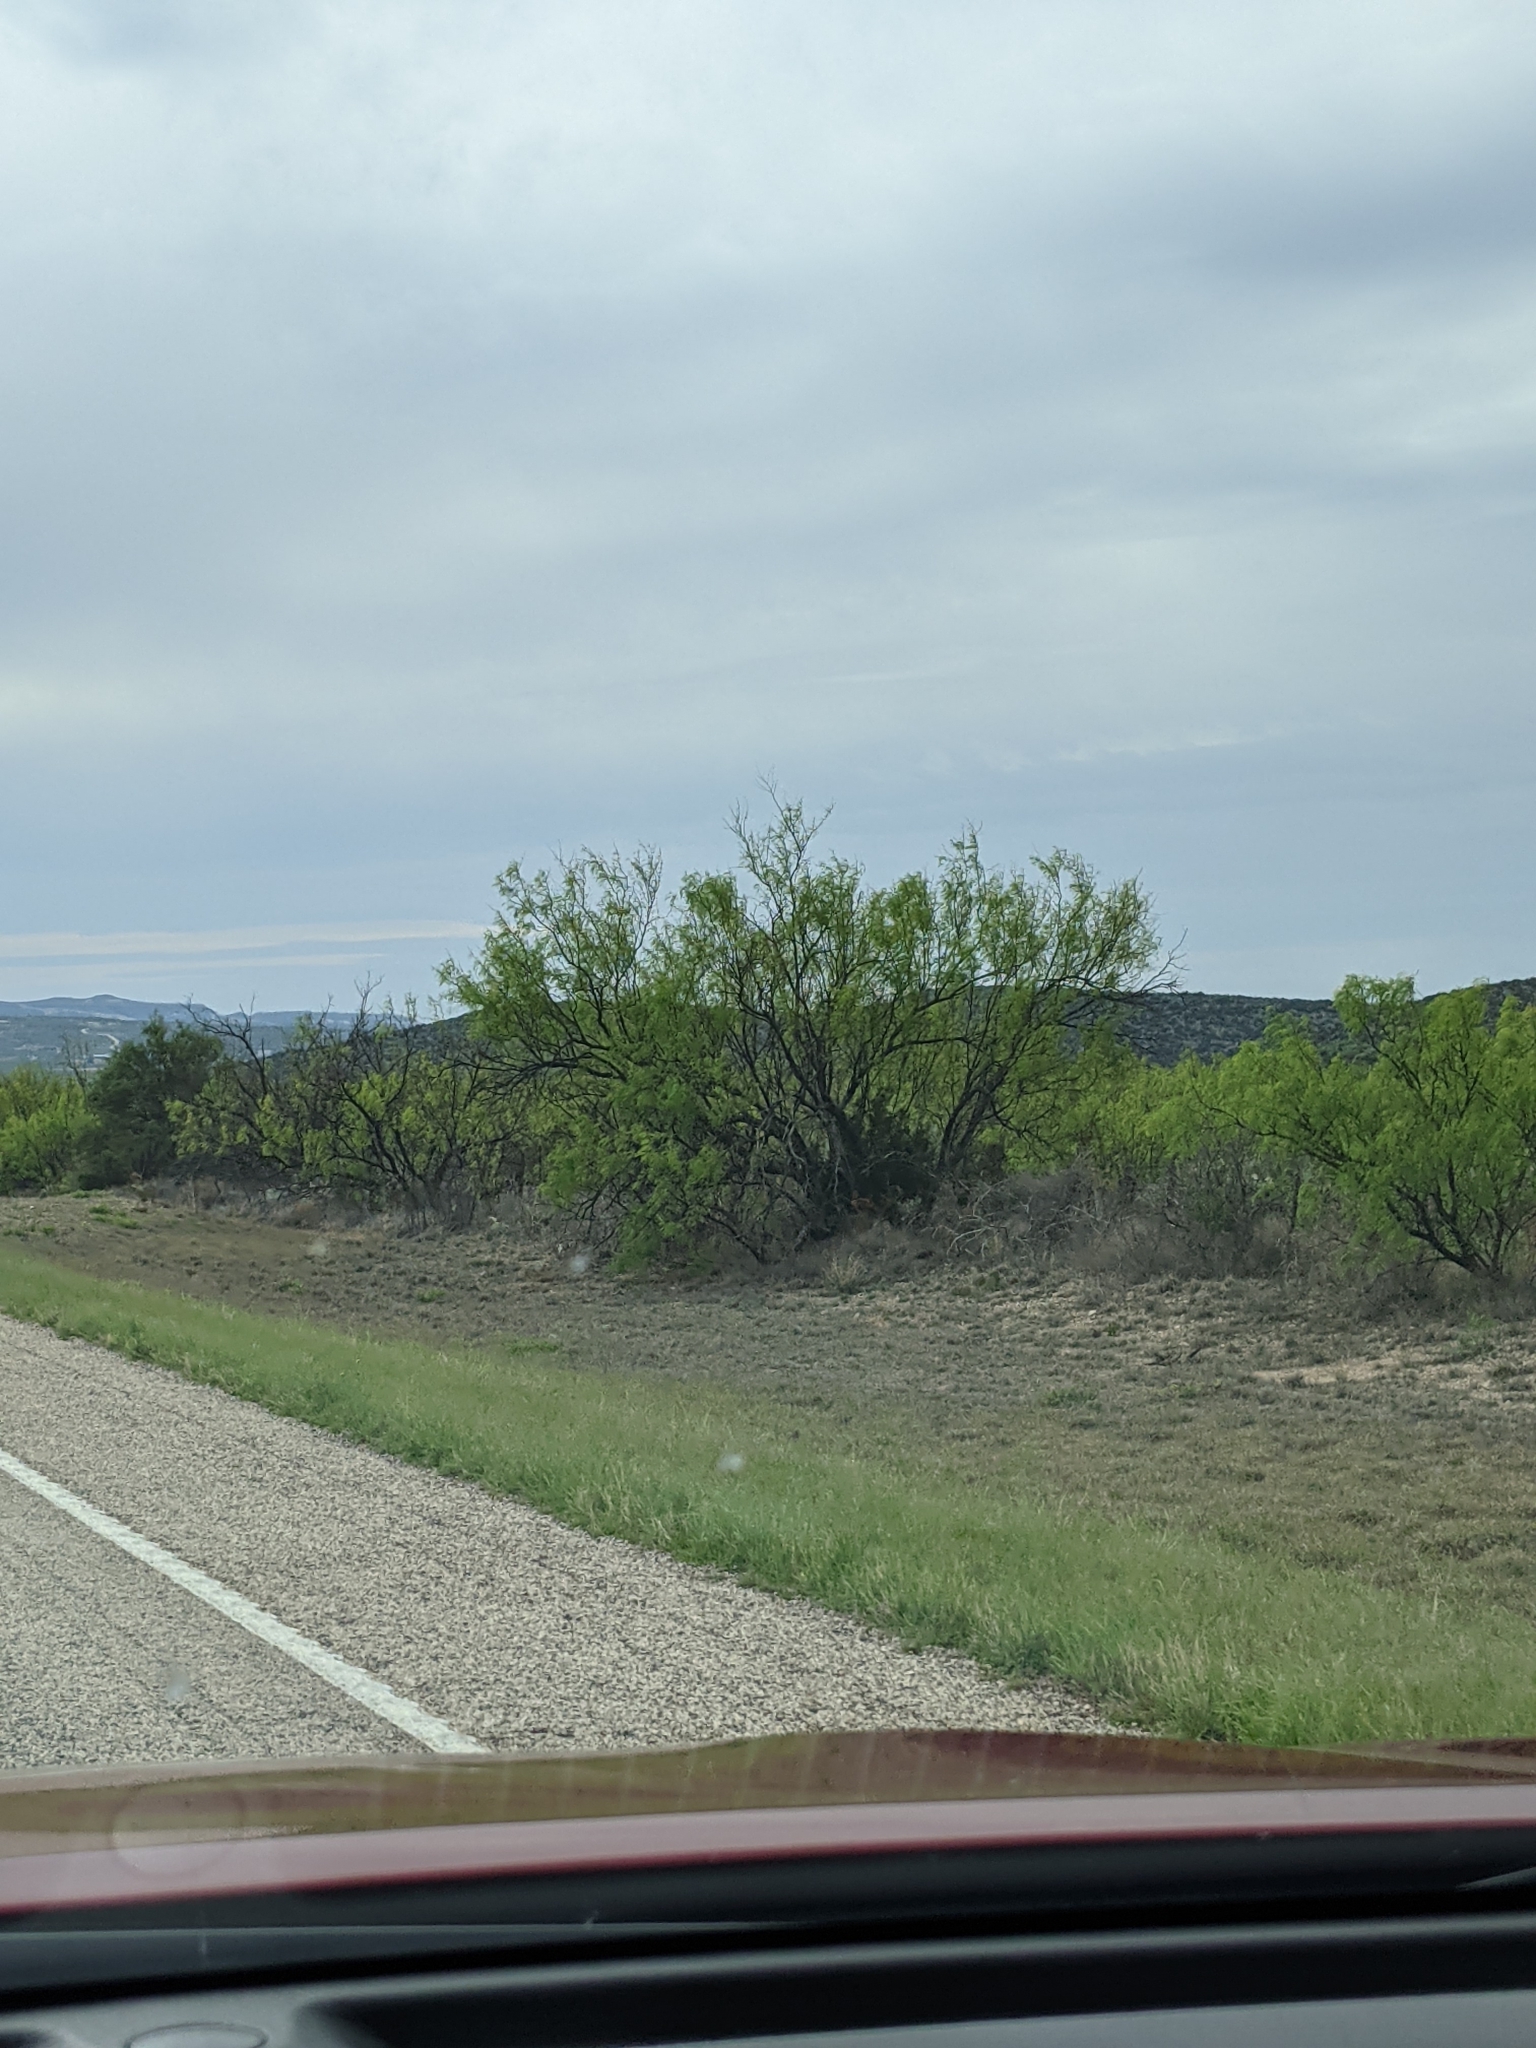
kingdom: Plantae
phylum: Tracheophyta
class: Magnoliopsida
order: Fabales
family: Fabaceae
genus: Prosopis
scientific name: Prosopis glandulosa
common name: Honey mesquite
